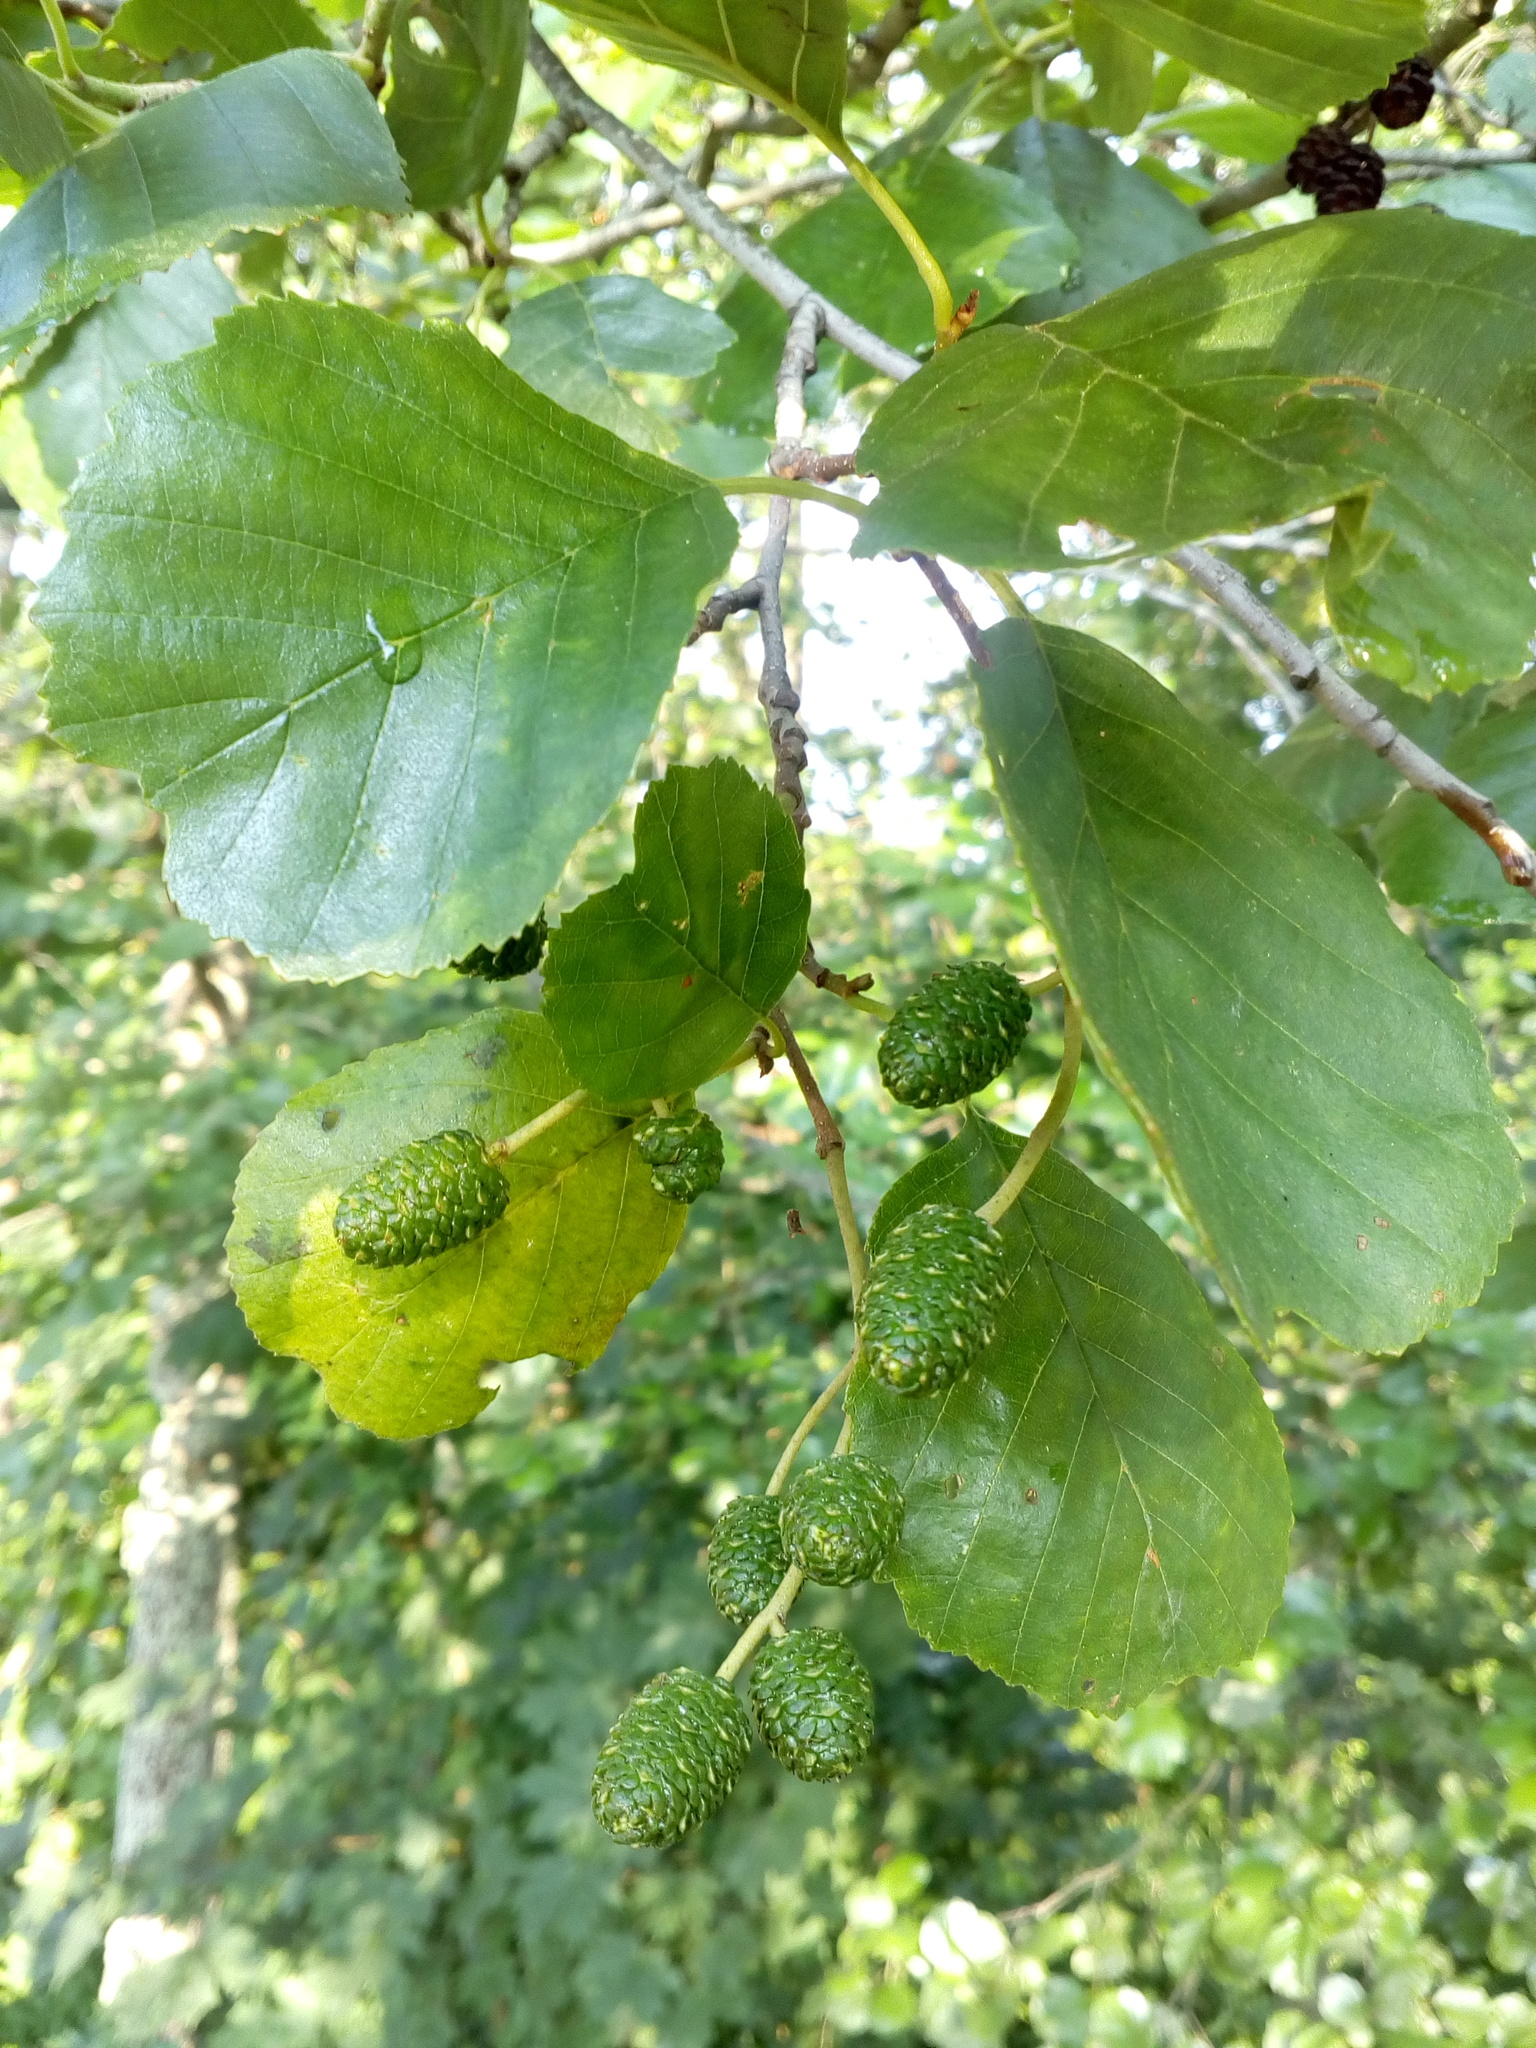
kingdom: Plantae
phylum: Tracheophyta
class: Magnoliopsida
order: Fagales
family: Betulaceae
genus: Alnus
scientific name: Alnus glutinosa
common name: Black alder
